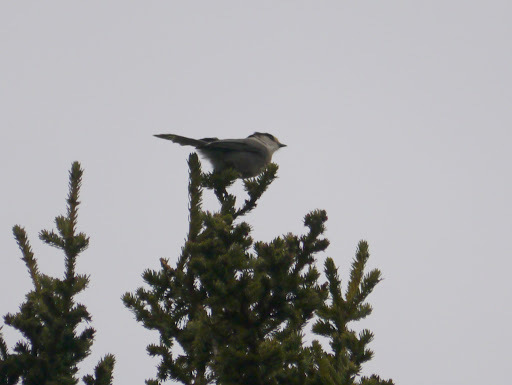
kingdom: Animalia
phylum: Chordata
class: Aves
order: Passeriformes
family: Corvidae
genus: Perisoreus
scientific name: Perisoreus canadensis
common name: Gray jay
